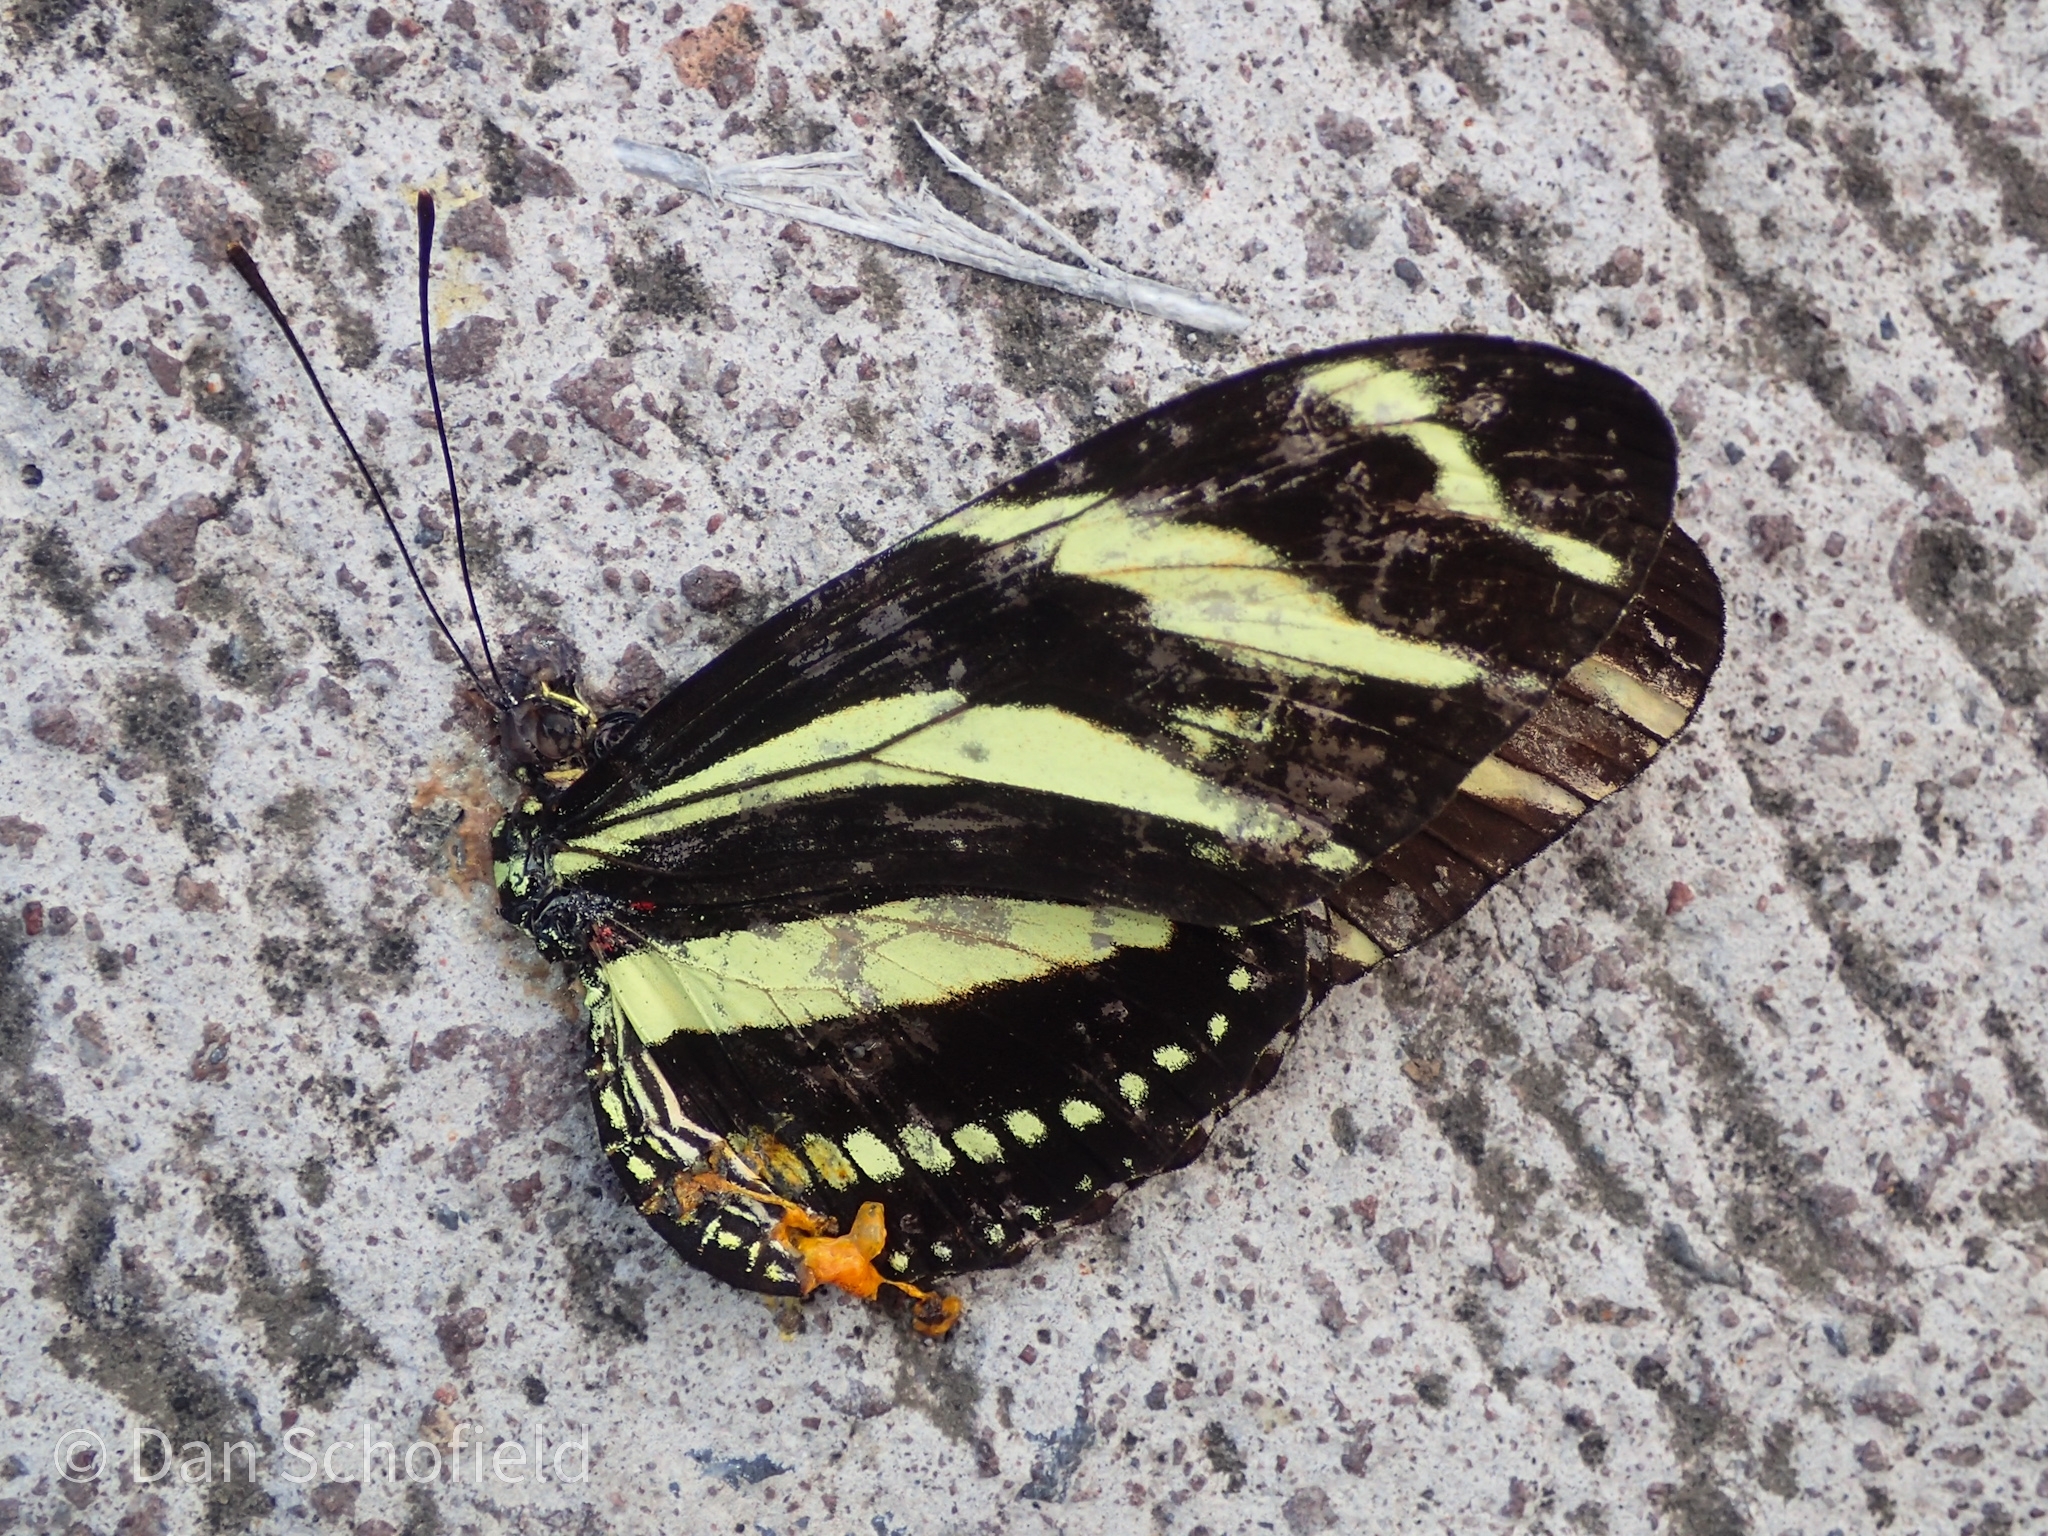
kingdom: Animalia
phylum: Arthropoda
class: Insecta
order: Lepidoptera
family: Nymphalidae
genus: Heliconius
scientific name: Heliconius charithonia
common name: Zebra long wing
